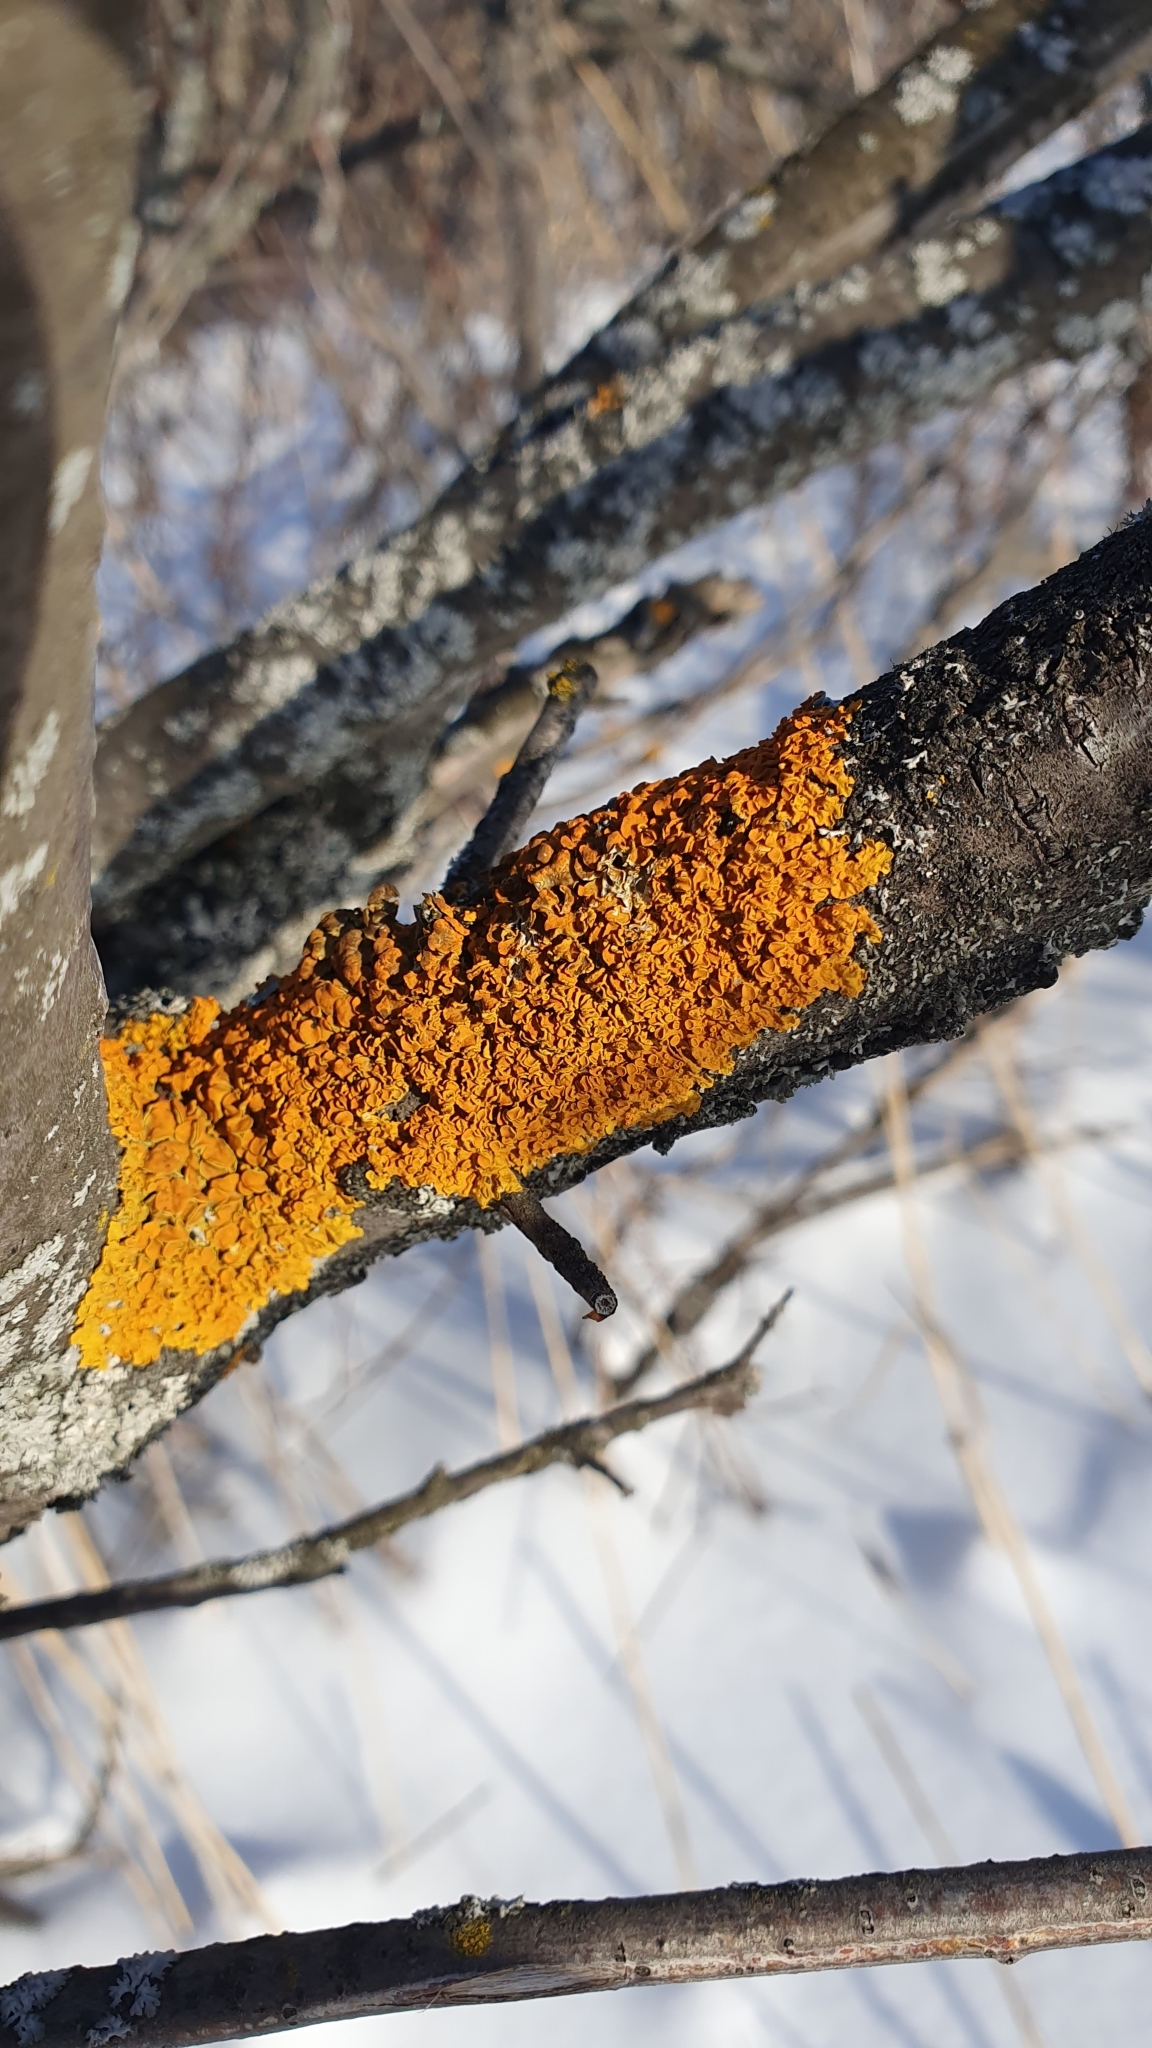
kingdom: Fungi
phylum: Ascomycota
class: Lecanoromycetes
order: Teloschistales
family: Teloschistaceae
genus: Xanthoria
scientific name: Xanthoria parietina
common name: Common orange lichen
